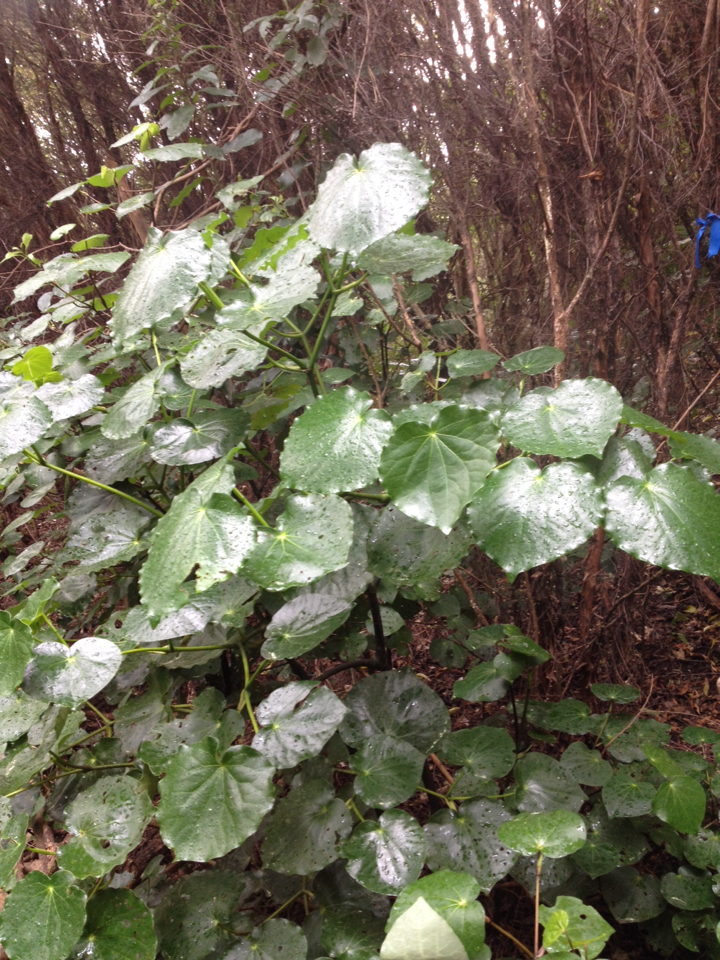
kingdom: Plantae
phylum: Tracheophyta
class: Magnoliopsida
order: Piperales
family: Piperaceae
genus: Macropiper
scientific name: Macropiper excelsum
